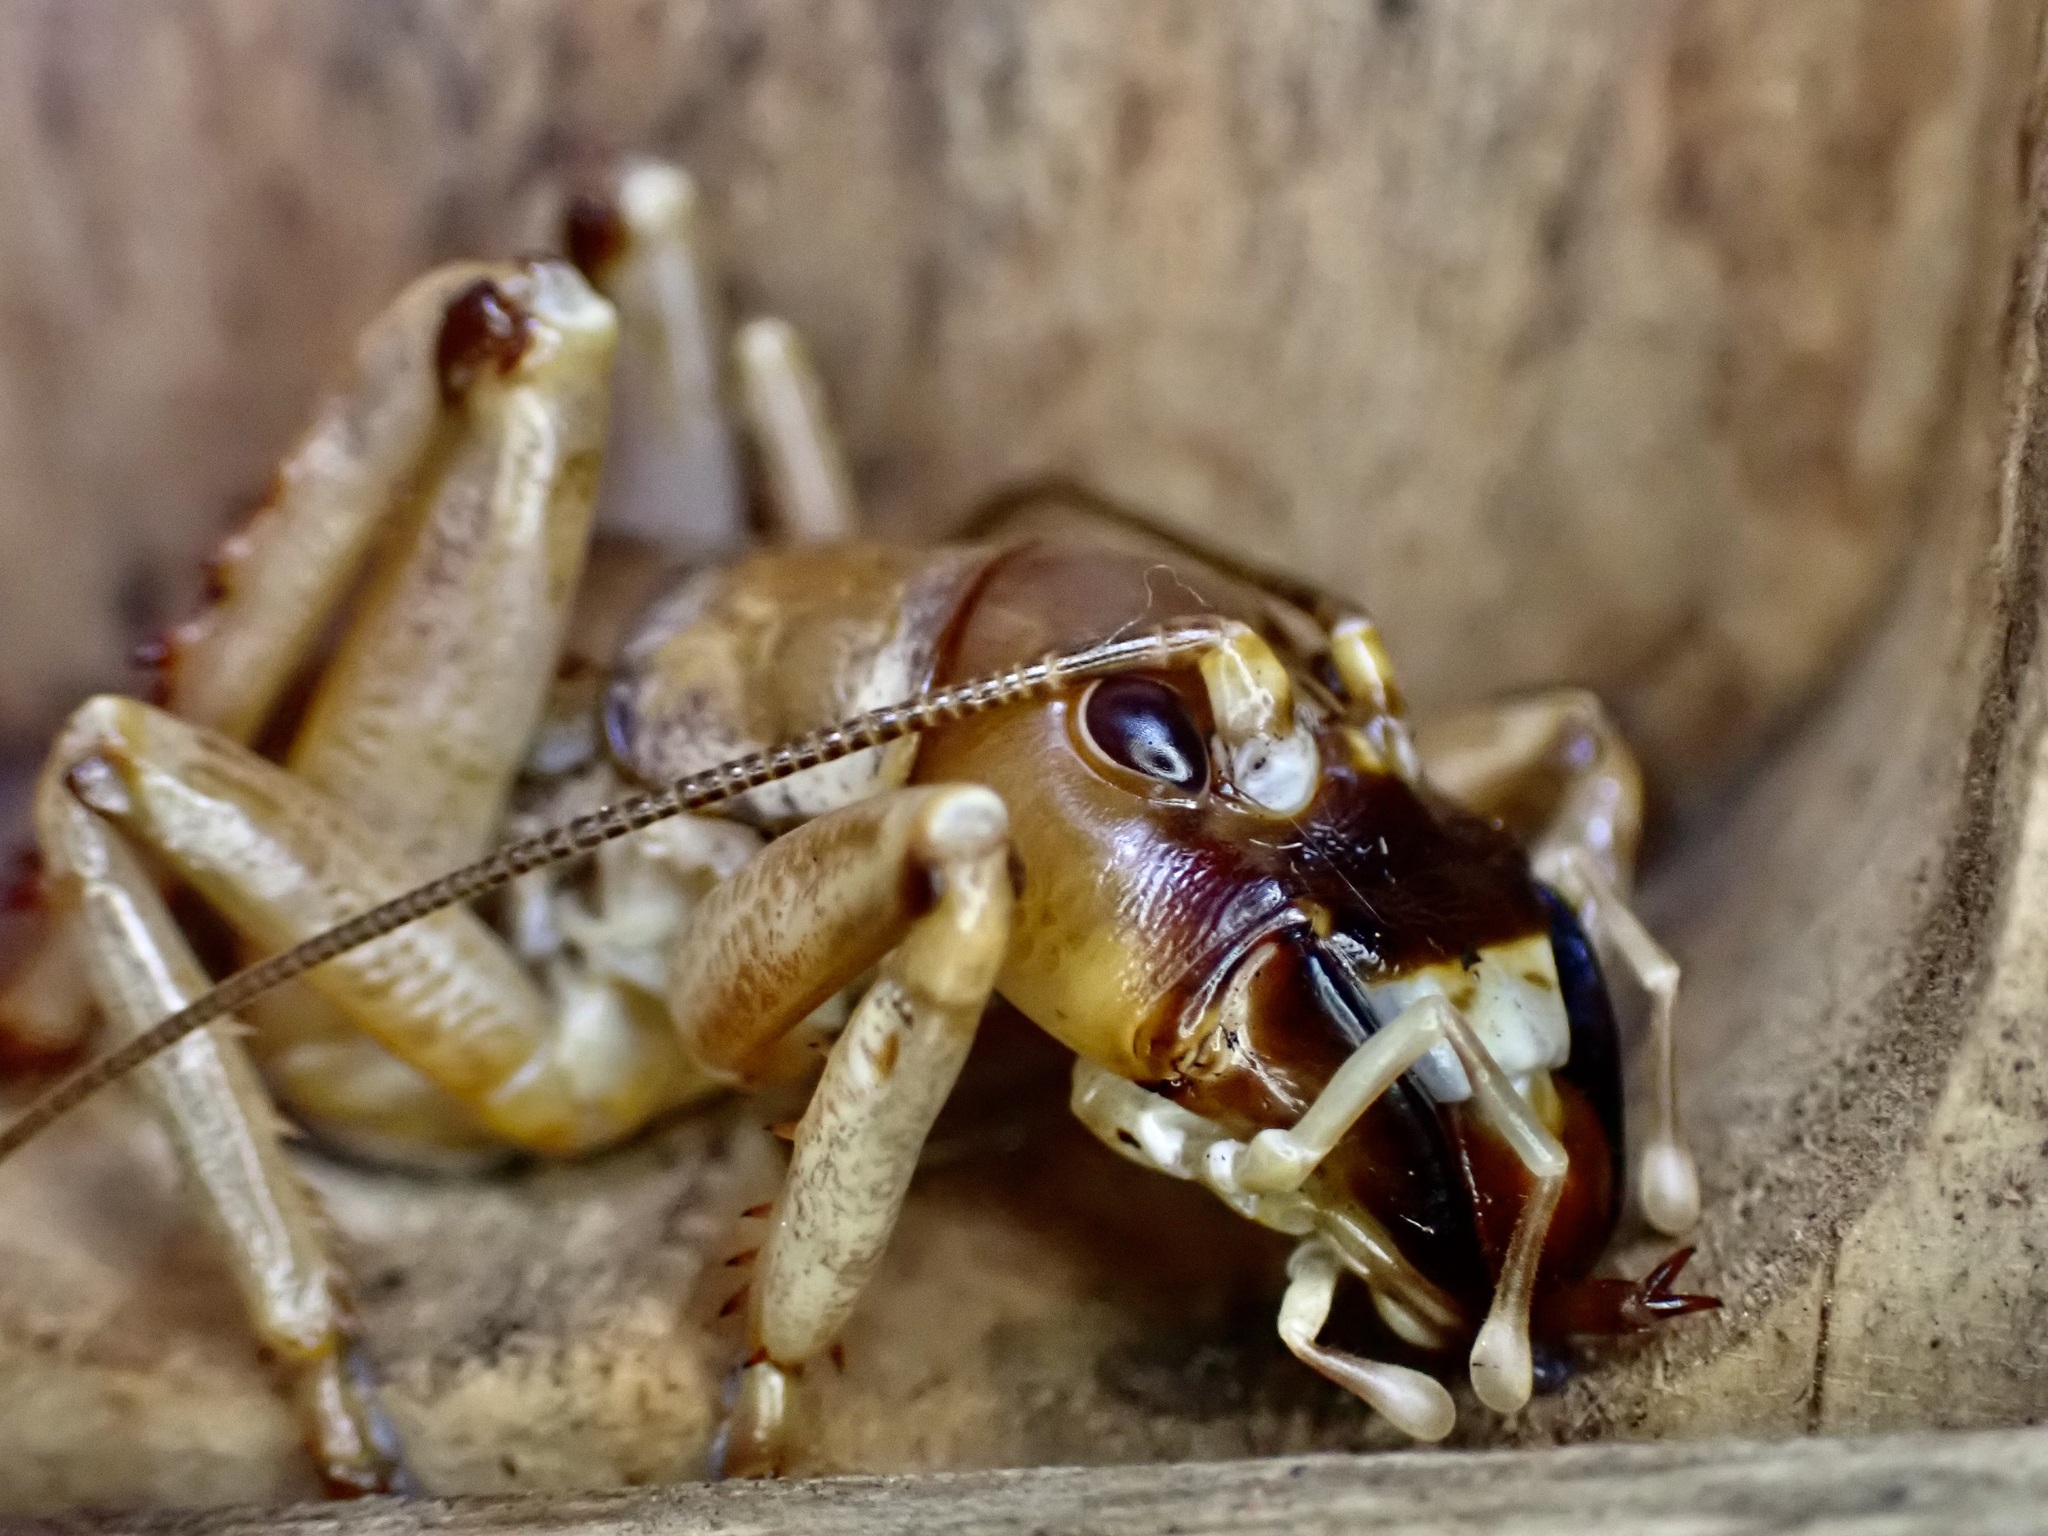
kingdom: Animalia
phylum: Arthropoda
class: Insecta
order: Orthoptera
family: Anostostomatidae
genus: Hemideina
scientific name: Hemideina ricta
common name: Banks peninsula tree weta
